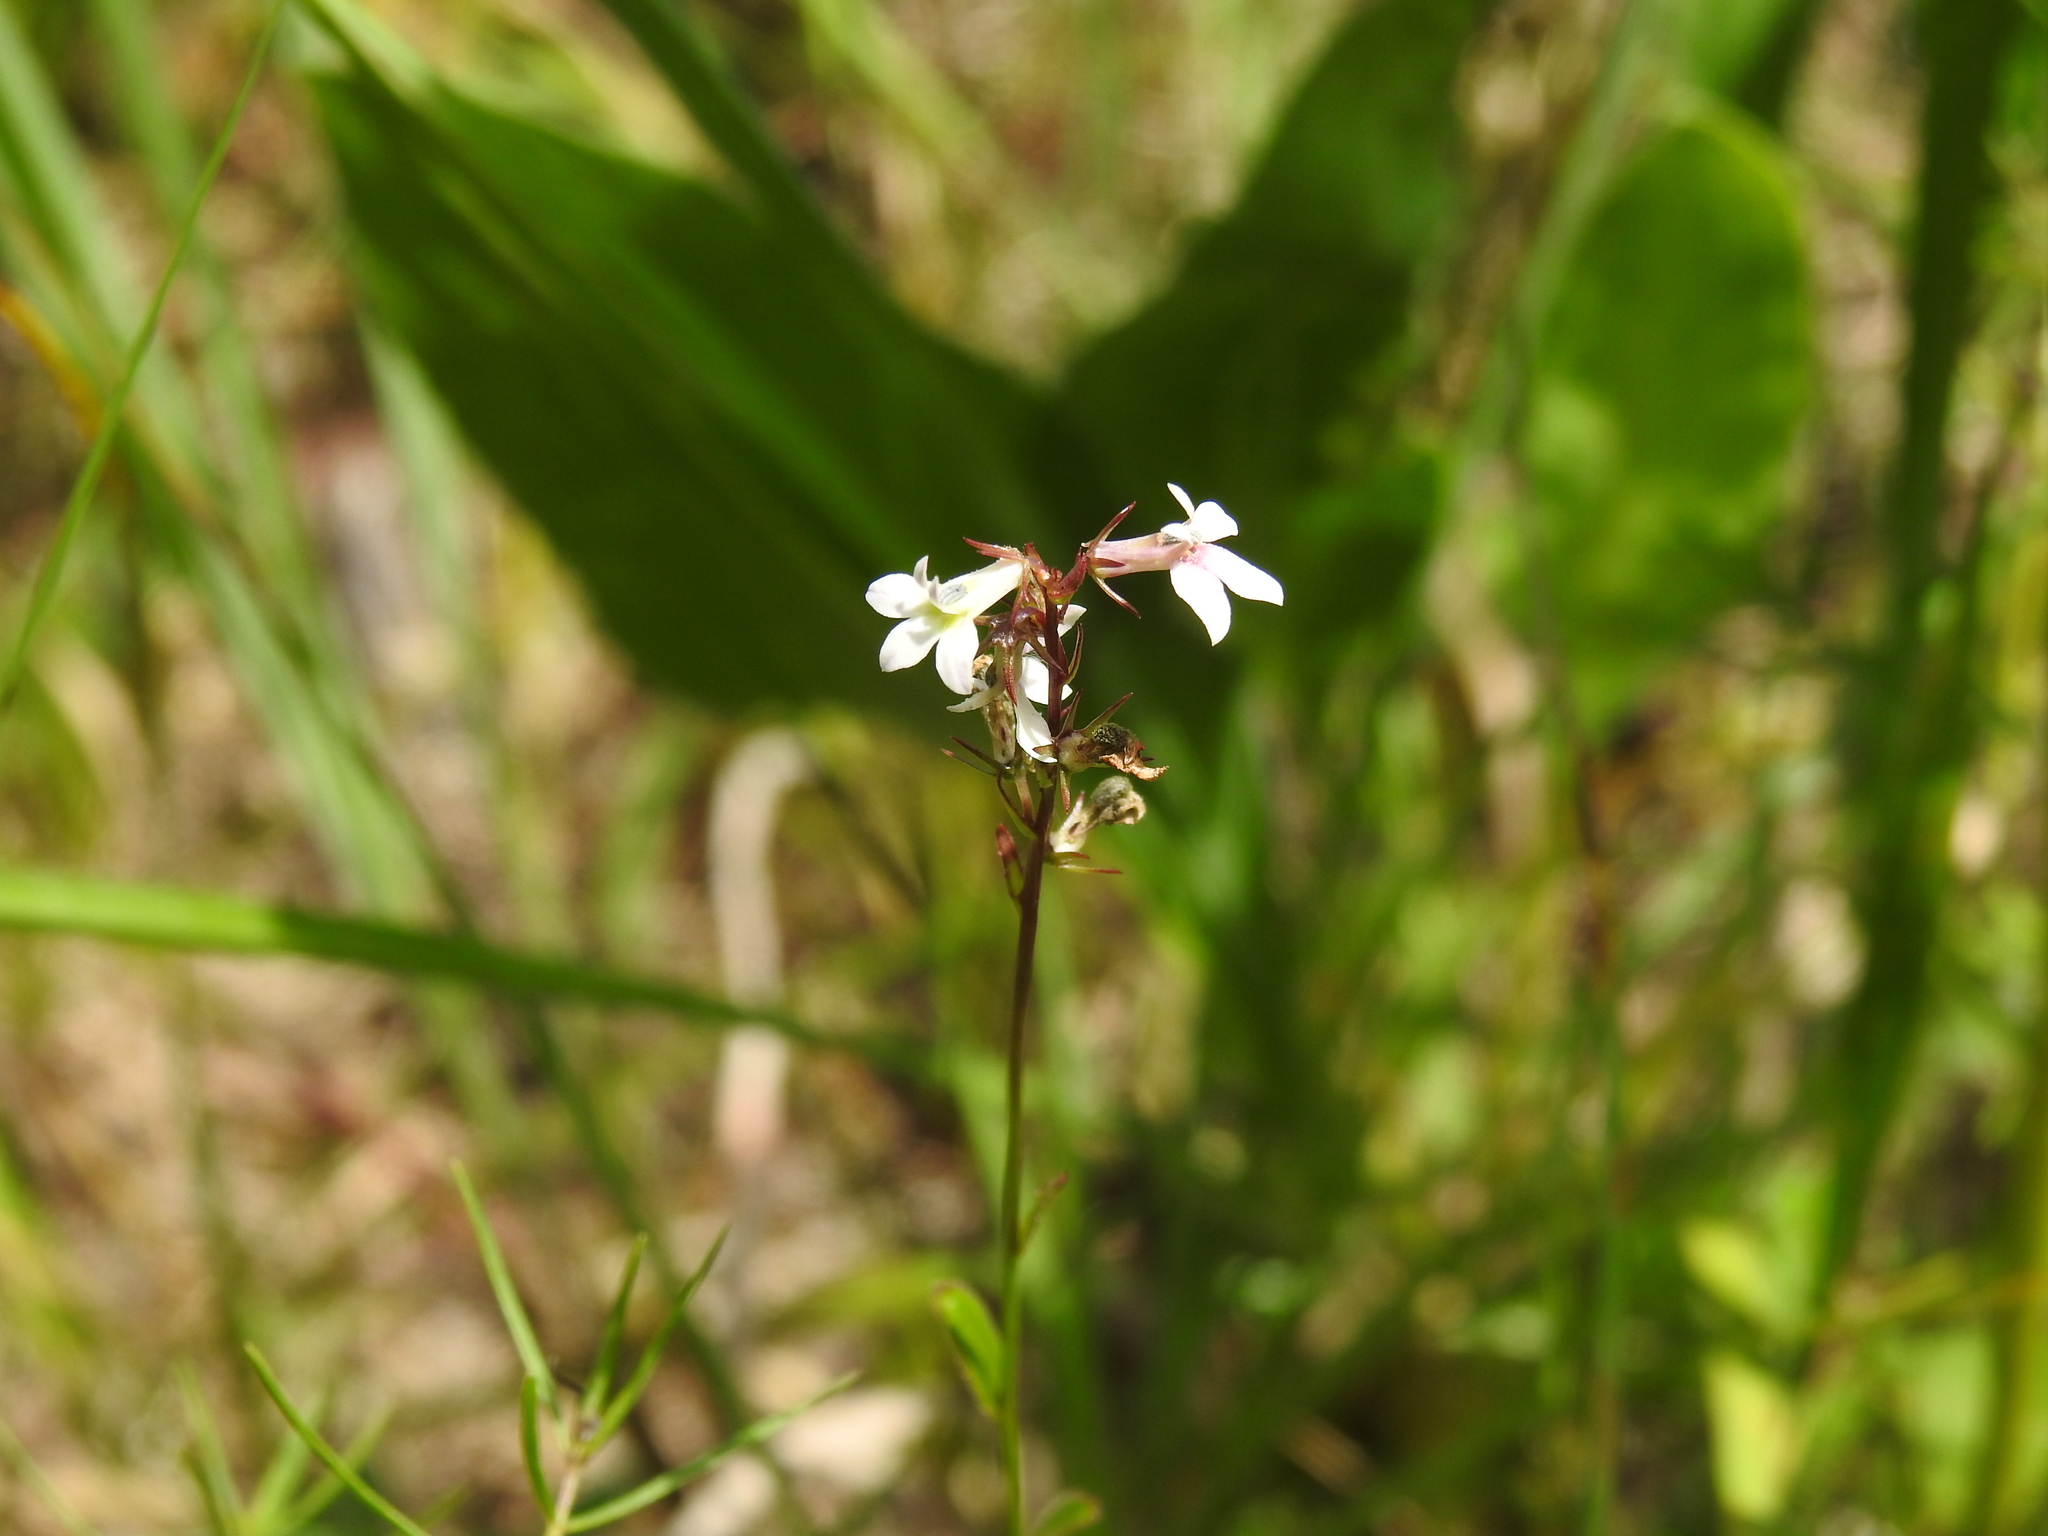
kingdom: Plantae
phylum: Tracheophyta
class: Magnoliopsida
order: Asterales
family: Campanulaceae
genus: Lobelia
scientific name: Lobelia spicata
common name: Pale-spike lobelia
